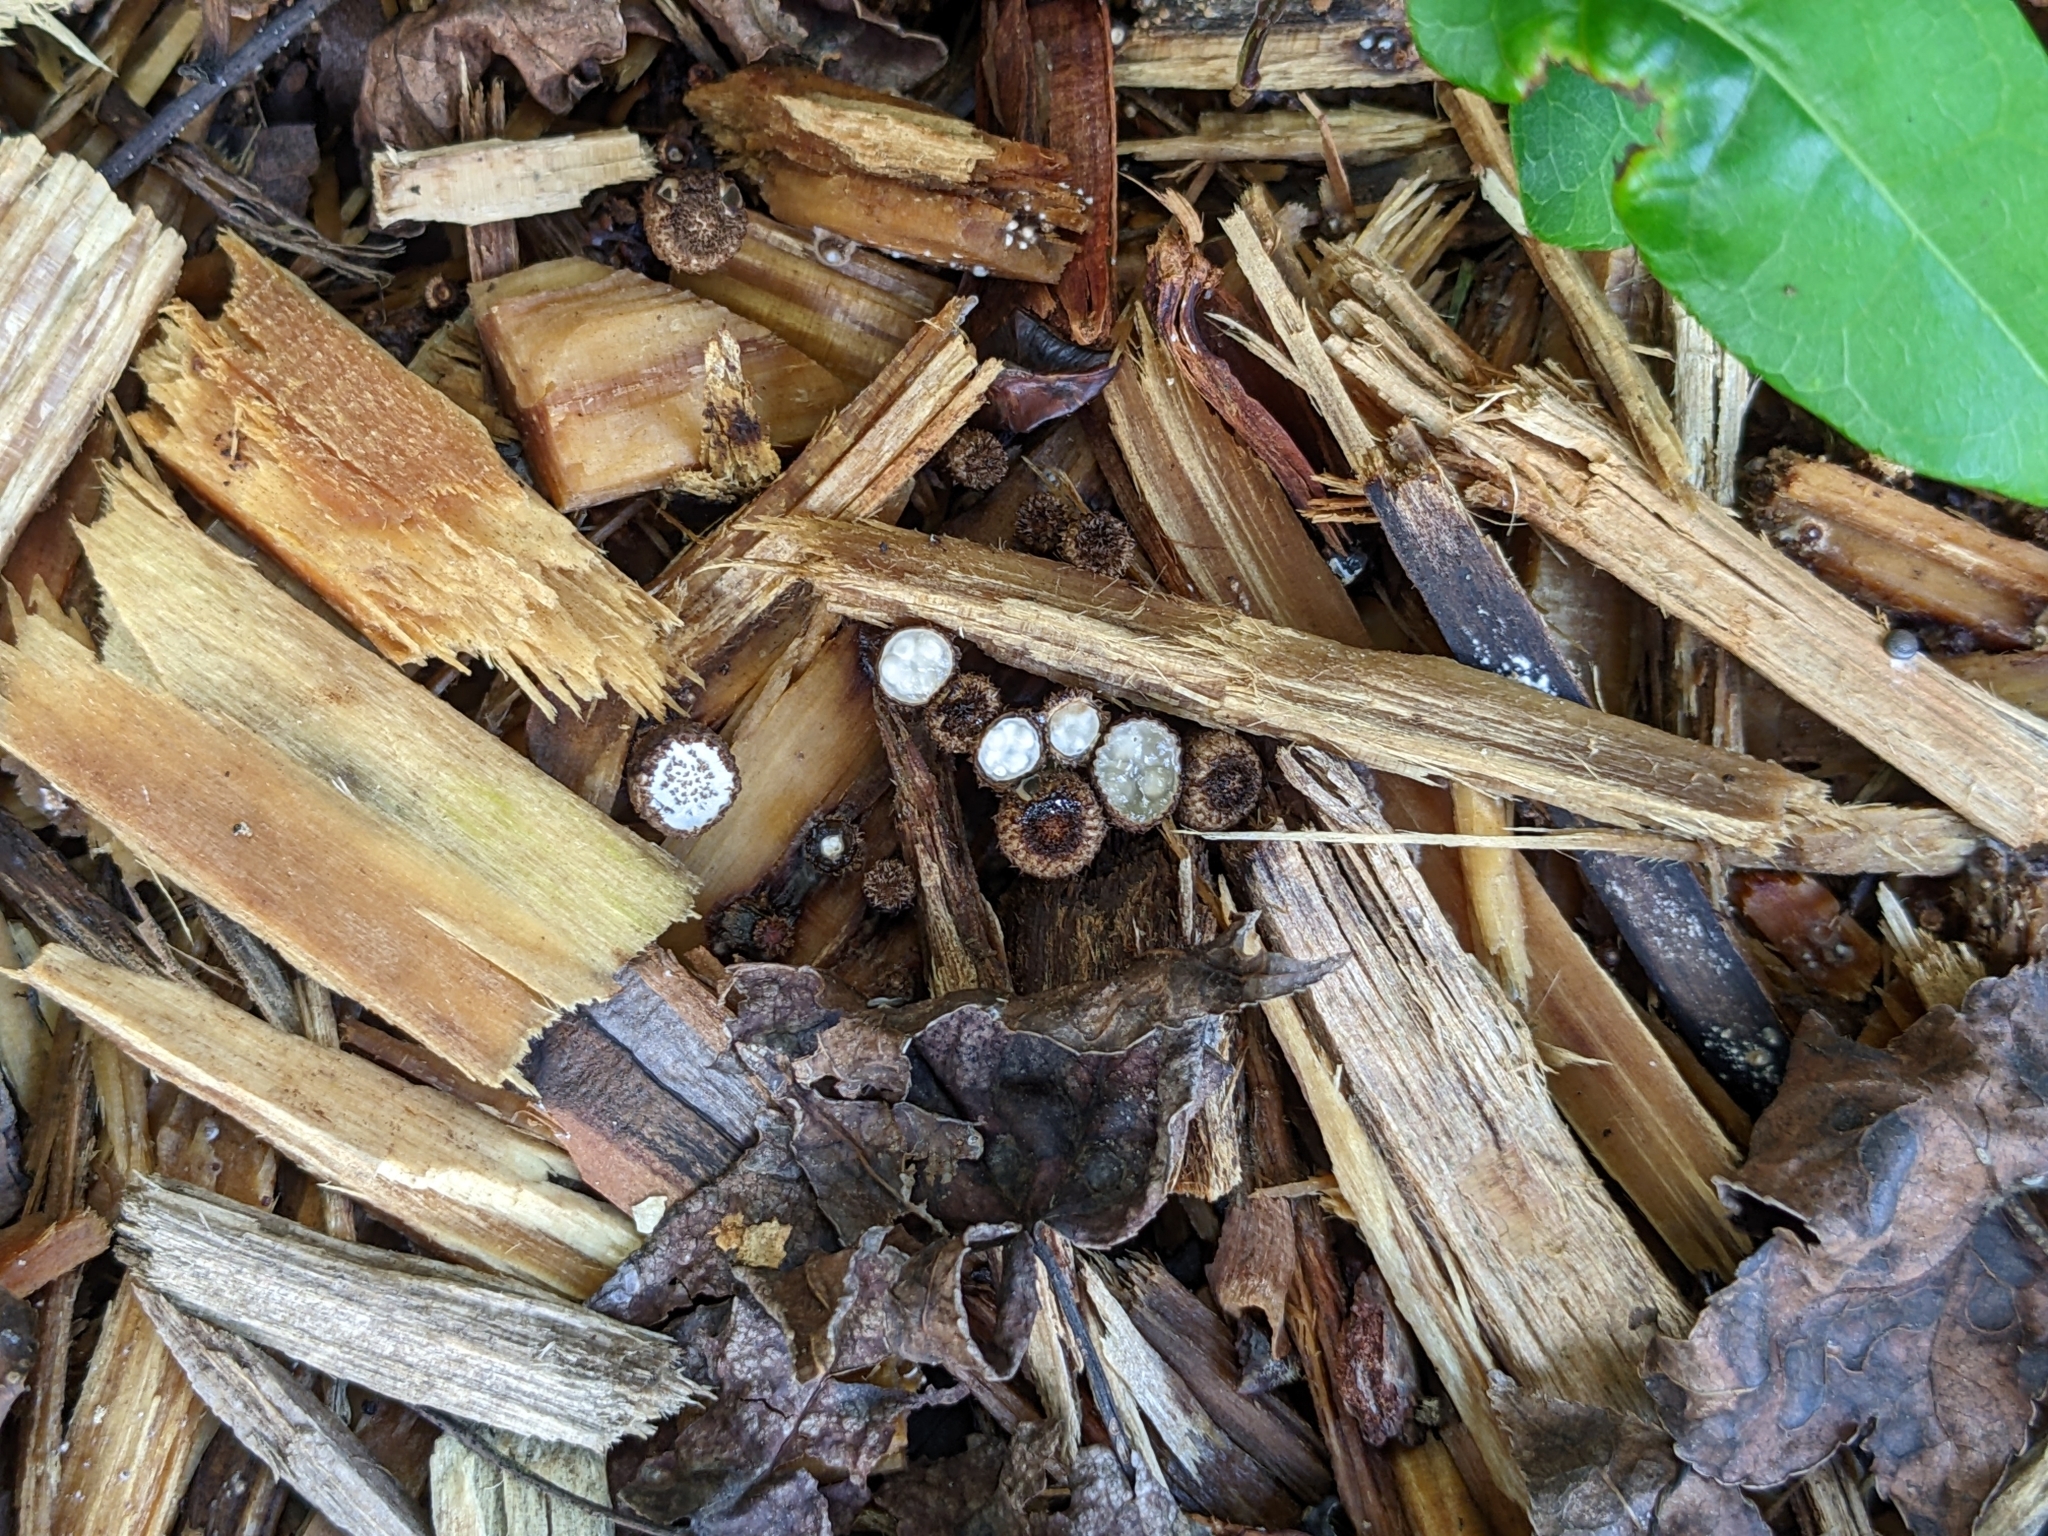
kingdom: Fungi
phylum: Basidiomycota
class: Agaricomycetes
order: Agaricales
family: Agaricaceae
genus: Cyathus
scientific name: Cyathus striatus
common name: Fluted bird's nest
